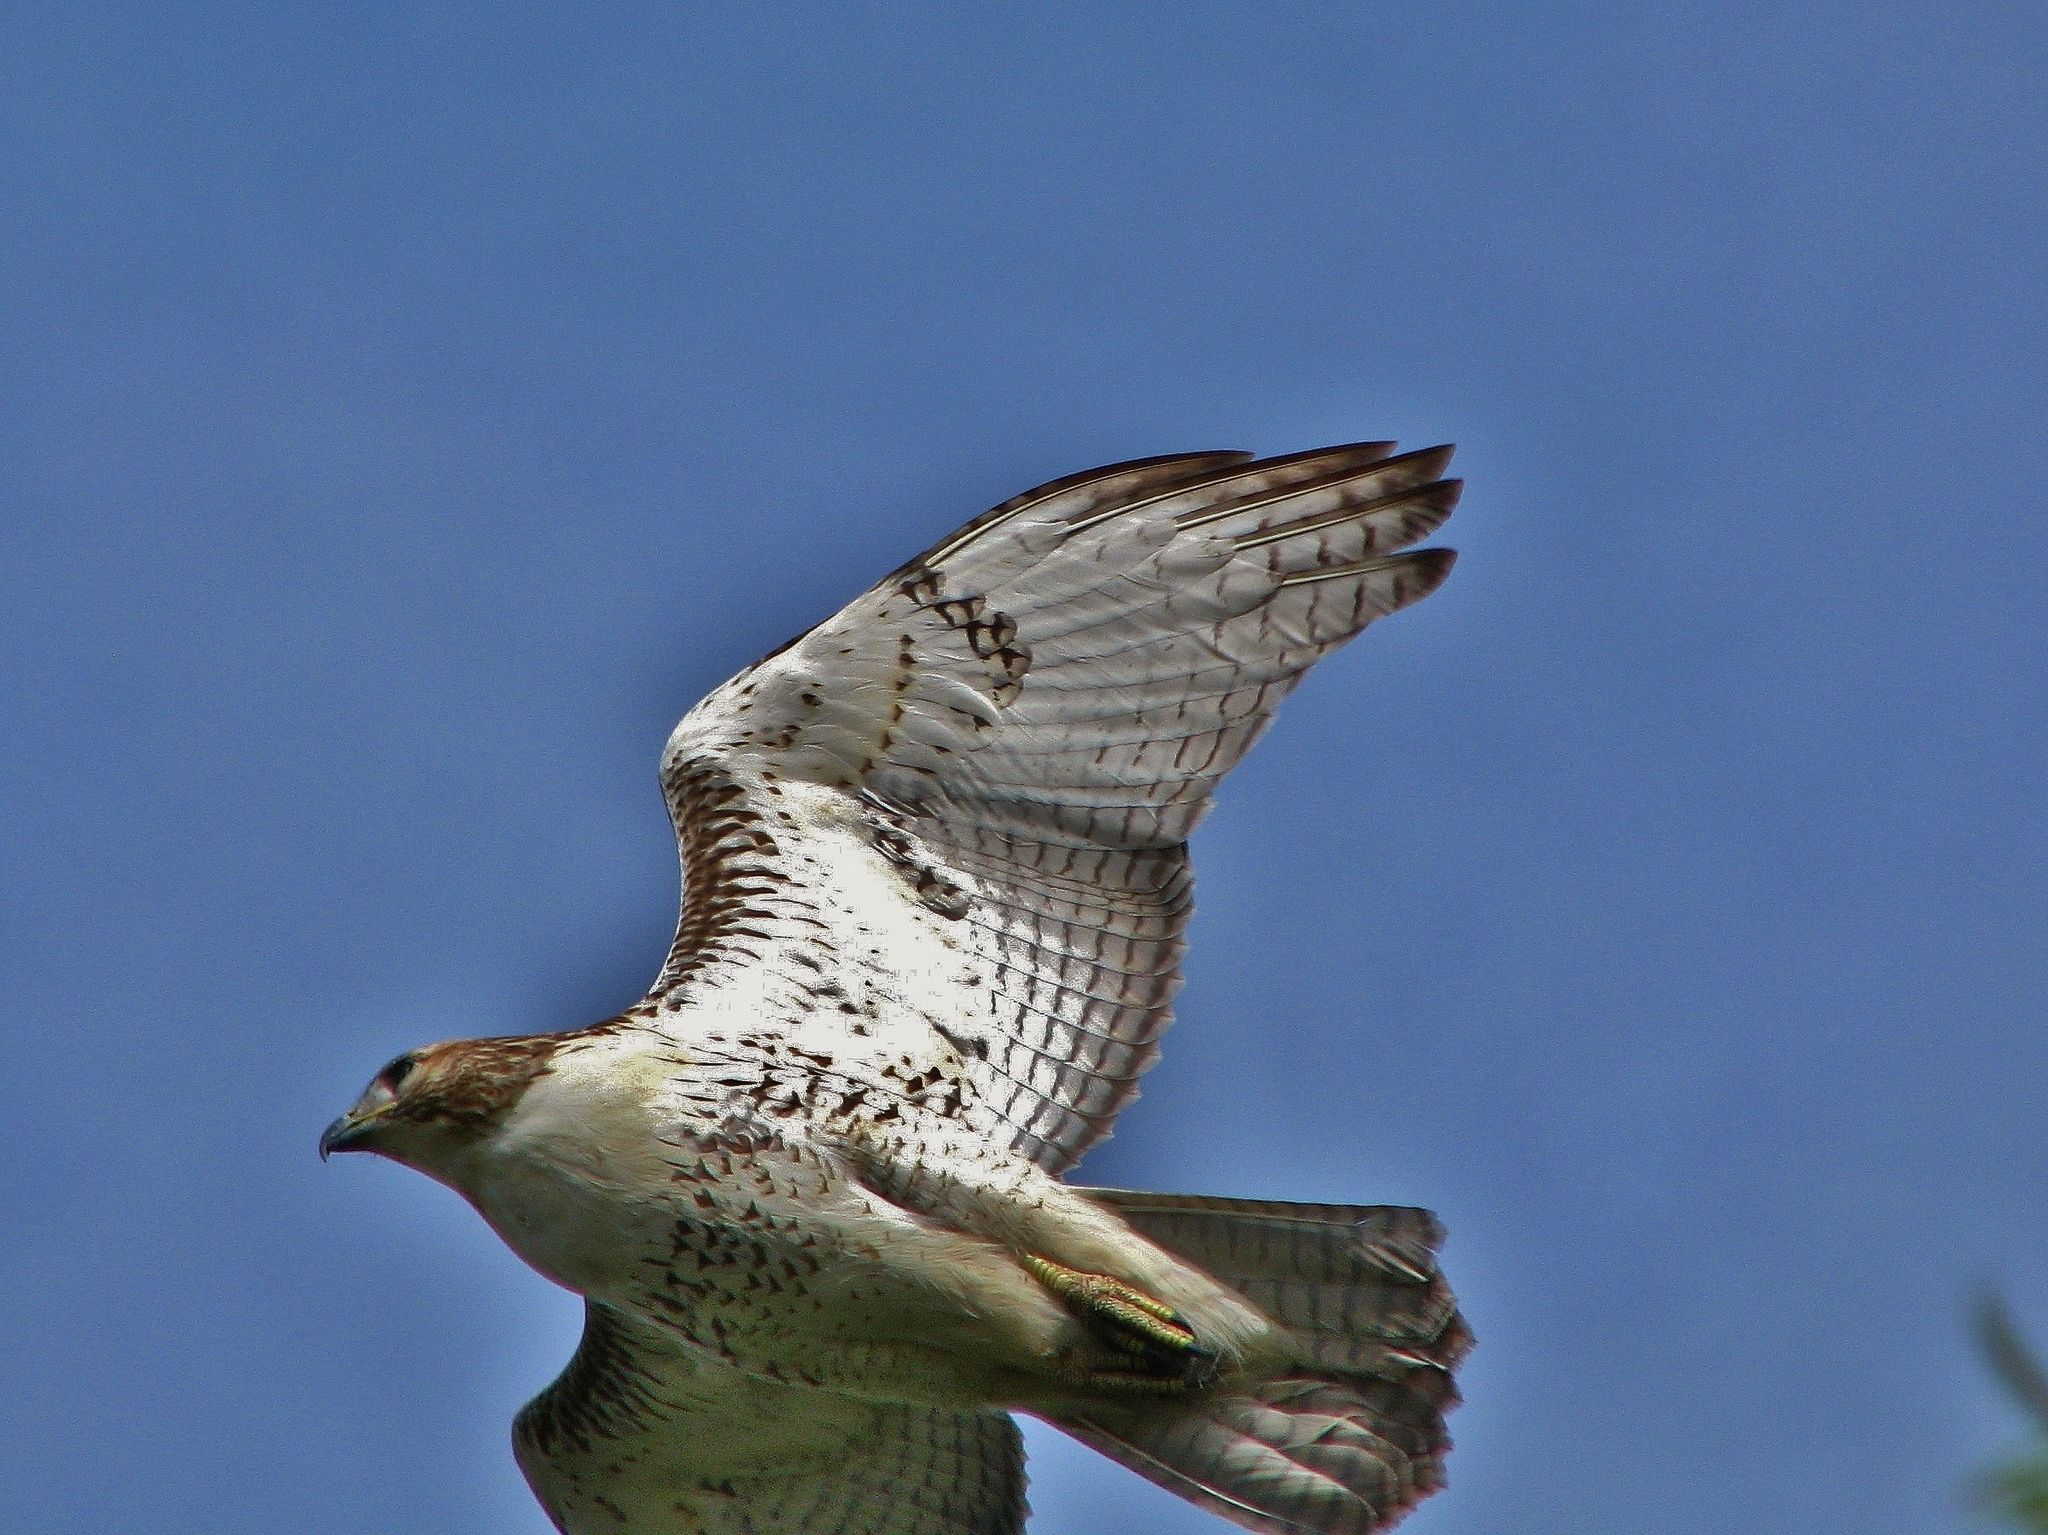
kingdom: Animalia
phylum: Chordata
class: Aves
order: Accipitriformes
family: Accipitridae
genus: Buteo
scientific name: Buteo jamaicensis
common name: Red-tailed hawk
